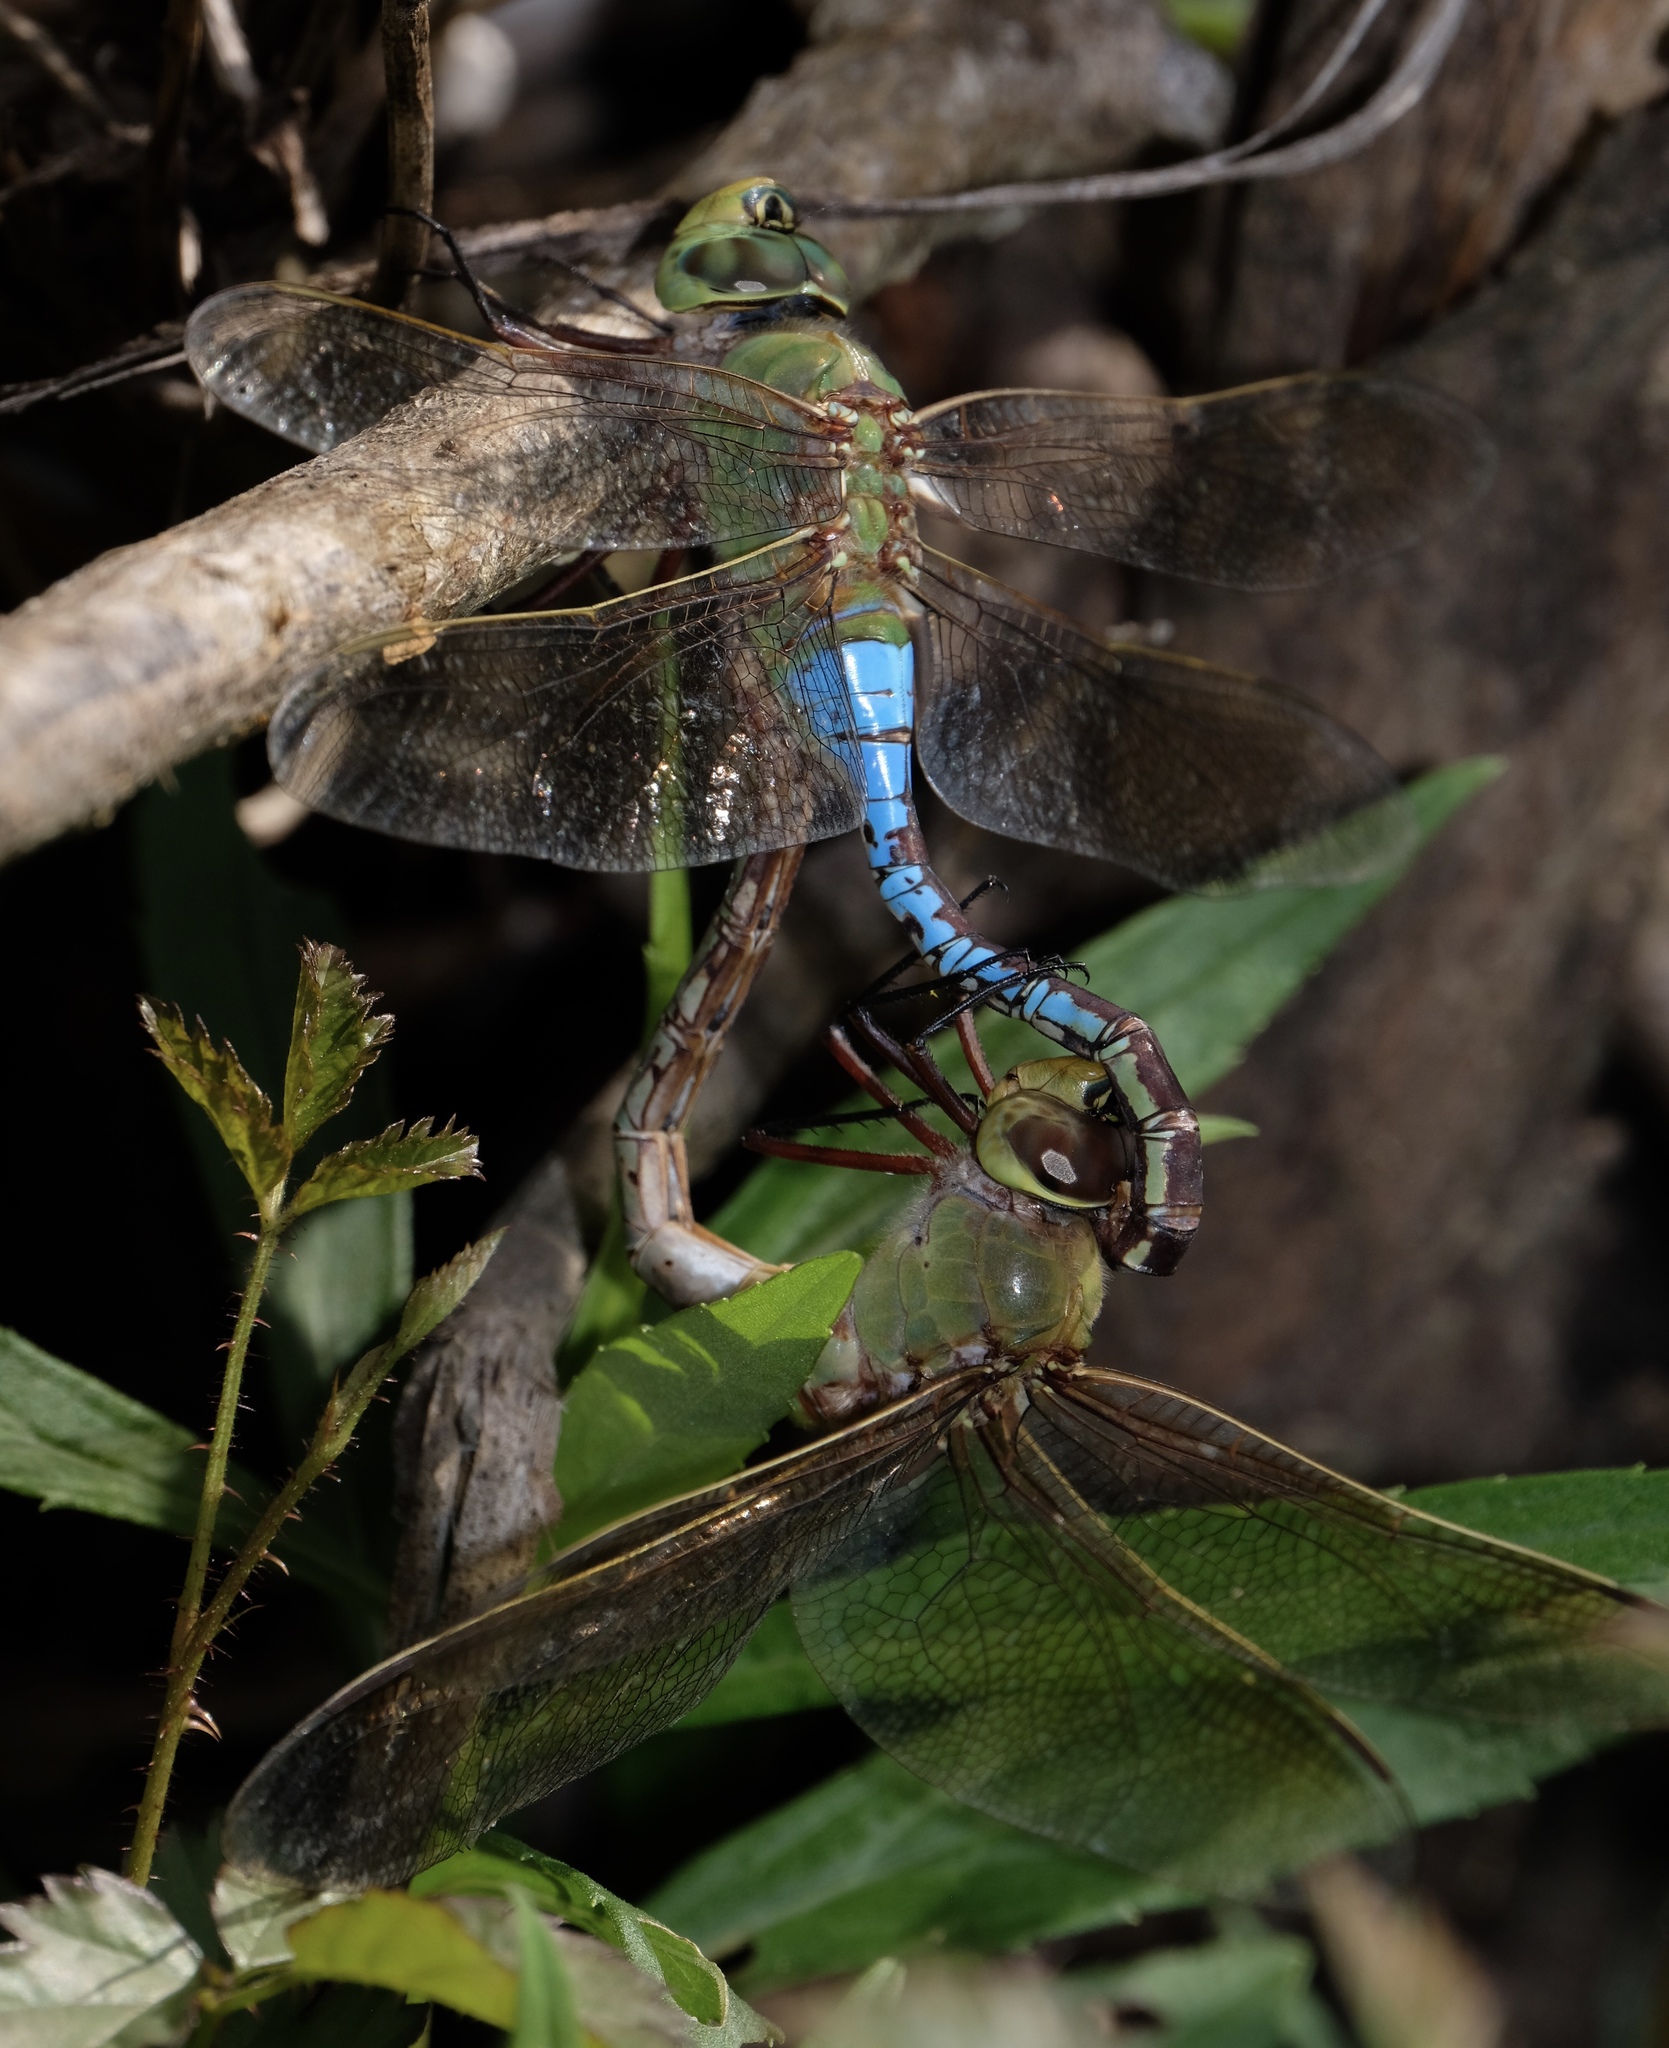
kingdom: Animalia
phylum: Arthropoda
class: Insecta
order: Odonata
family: Aeshnidae
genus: Anax
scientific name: Anax junius
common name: Common green darner
